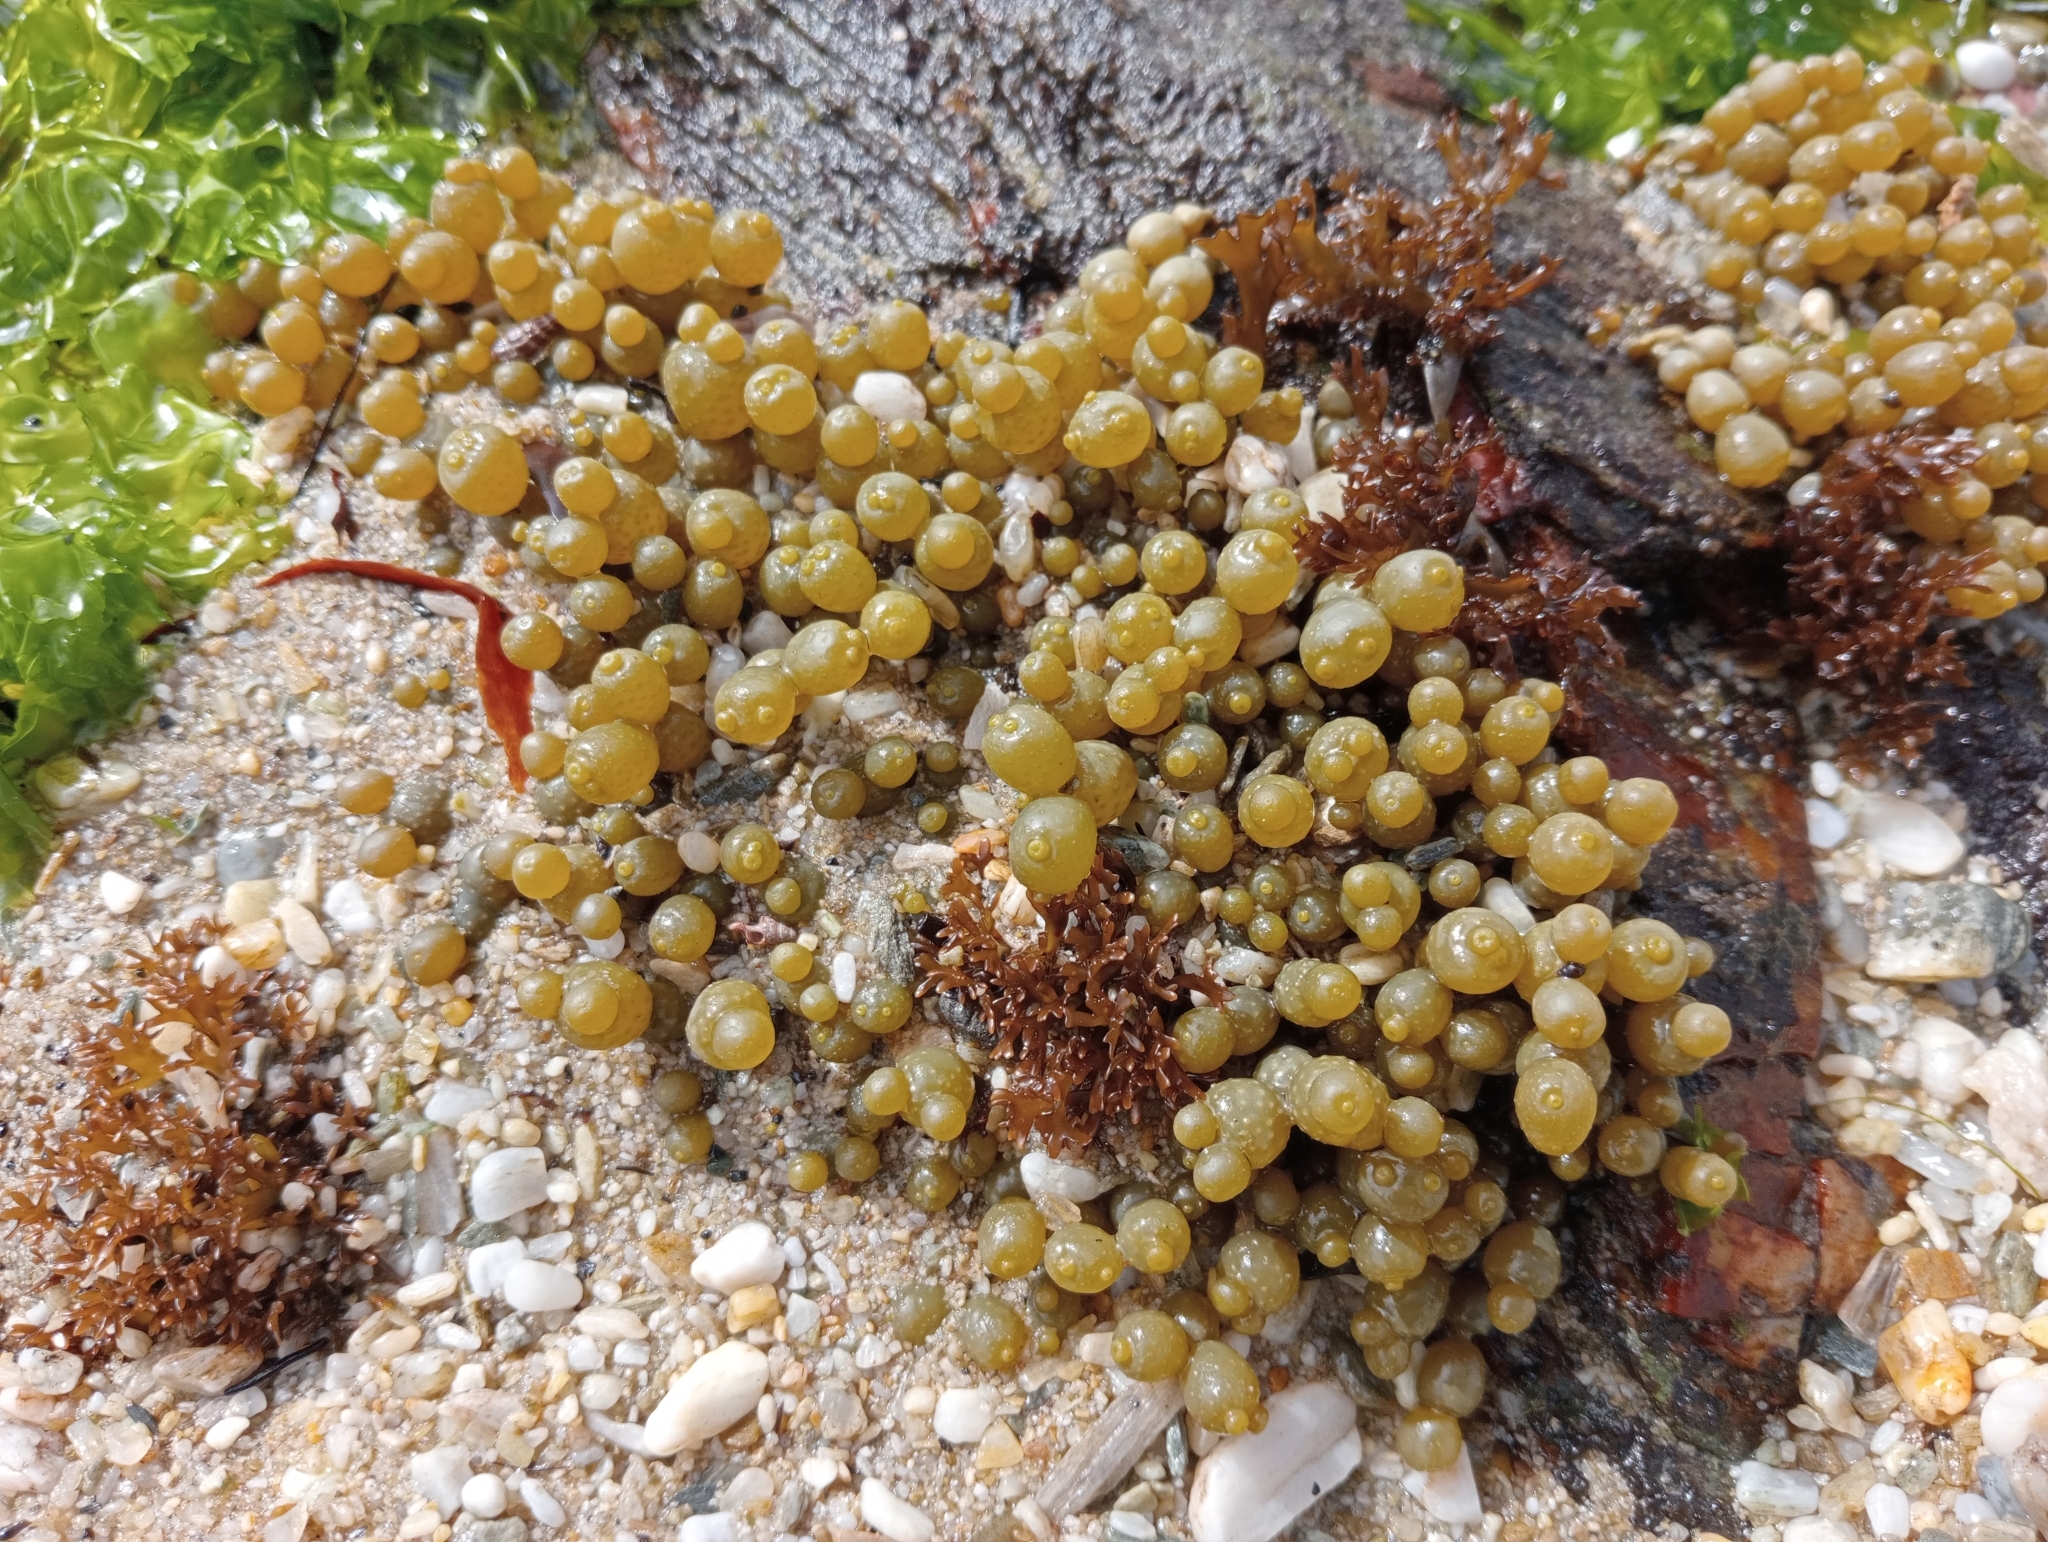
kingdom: Chromista
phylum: Ochrophyta
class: Phaeophyceae
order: Fucales
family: Hormosiraceae
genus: Hormosira
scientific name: Hormosira banksii
